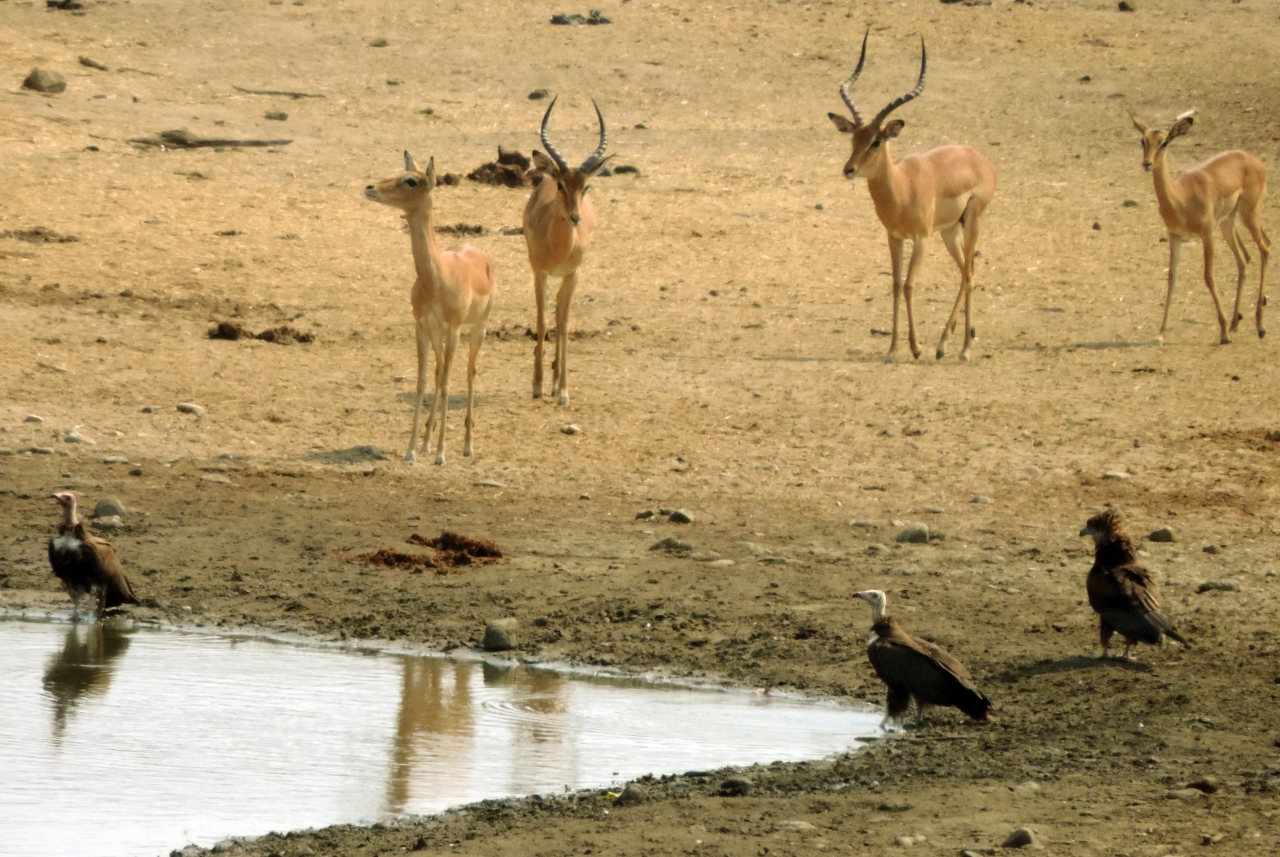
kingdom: Animalia
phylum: Chordata
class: Aves
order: Accipitriformes
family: Accipitridae
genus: Necrosyrtes
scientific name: Necrosyrtes monachus
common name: Hooded vulture
